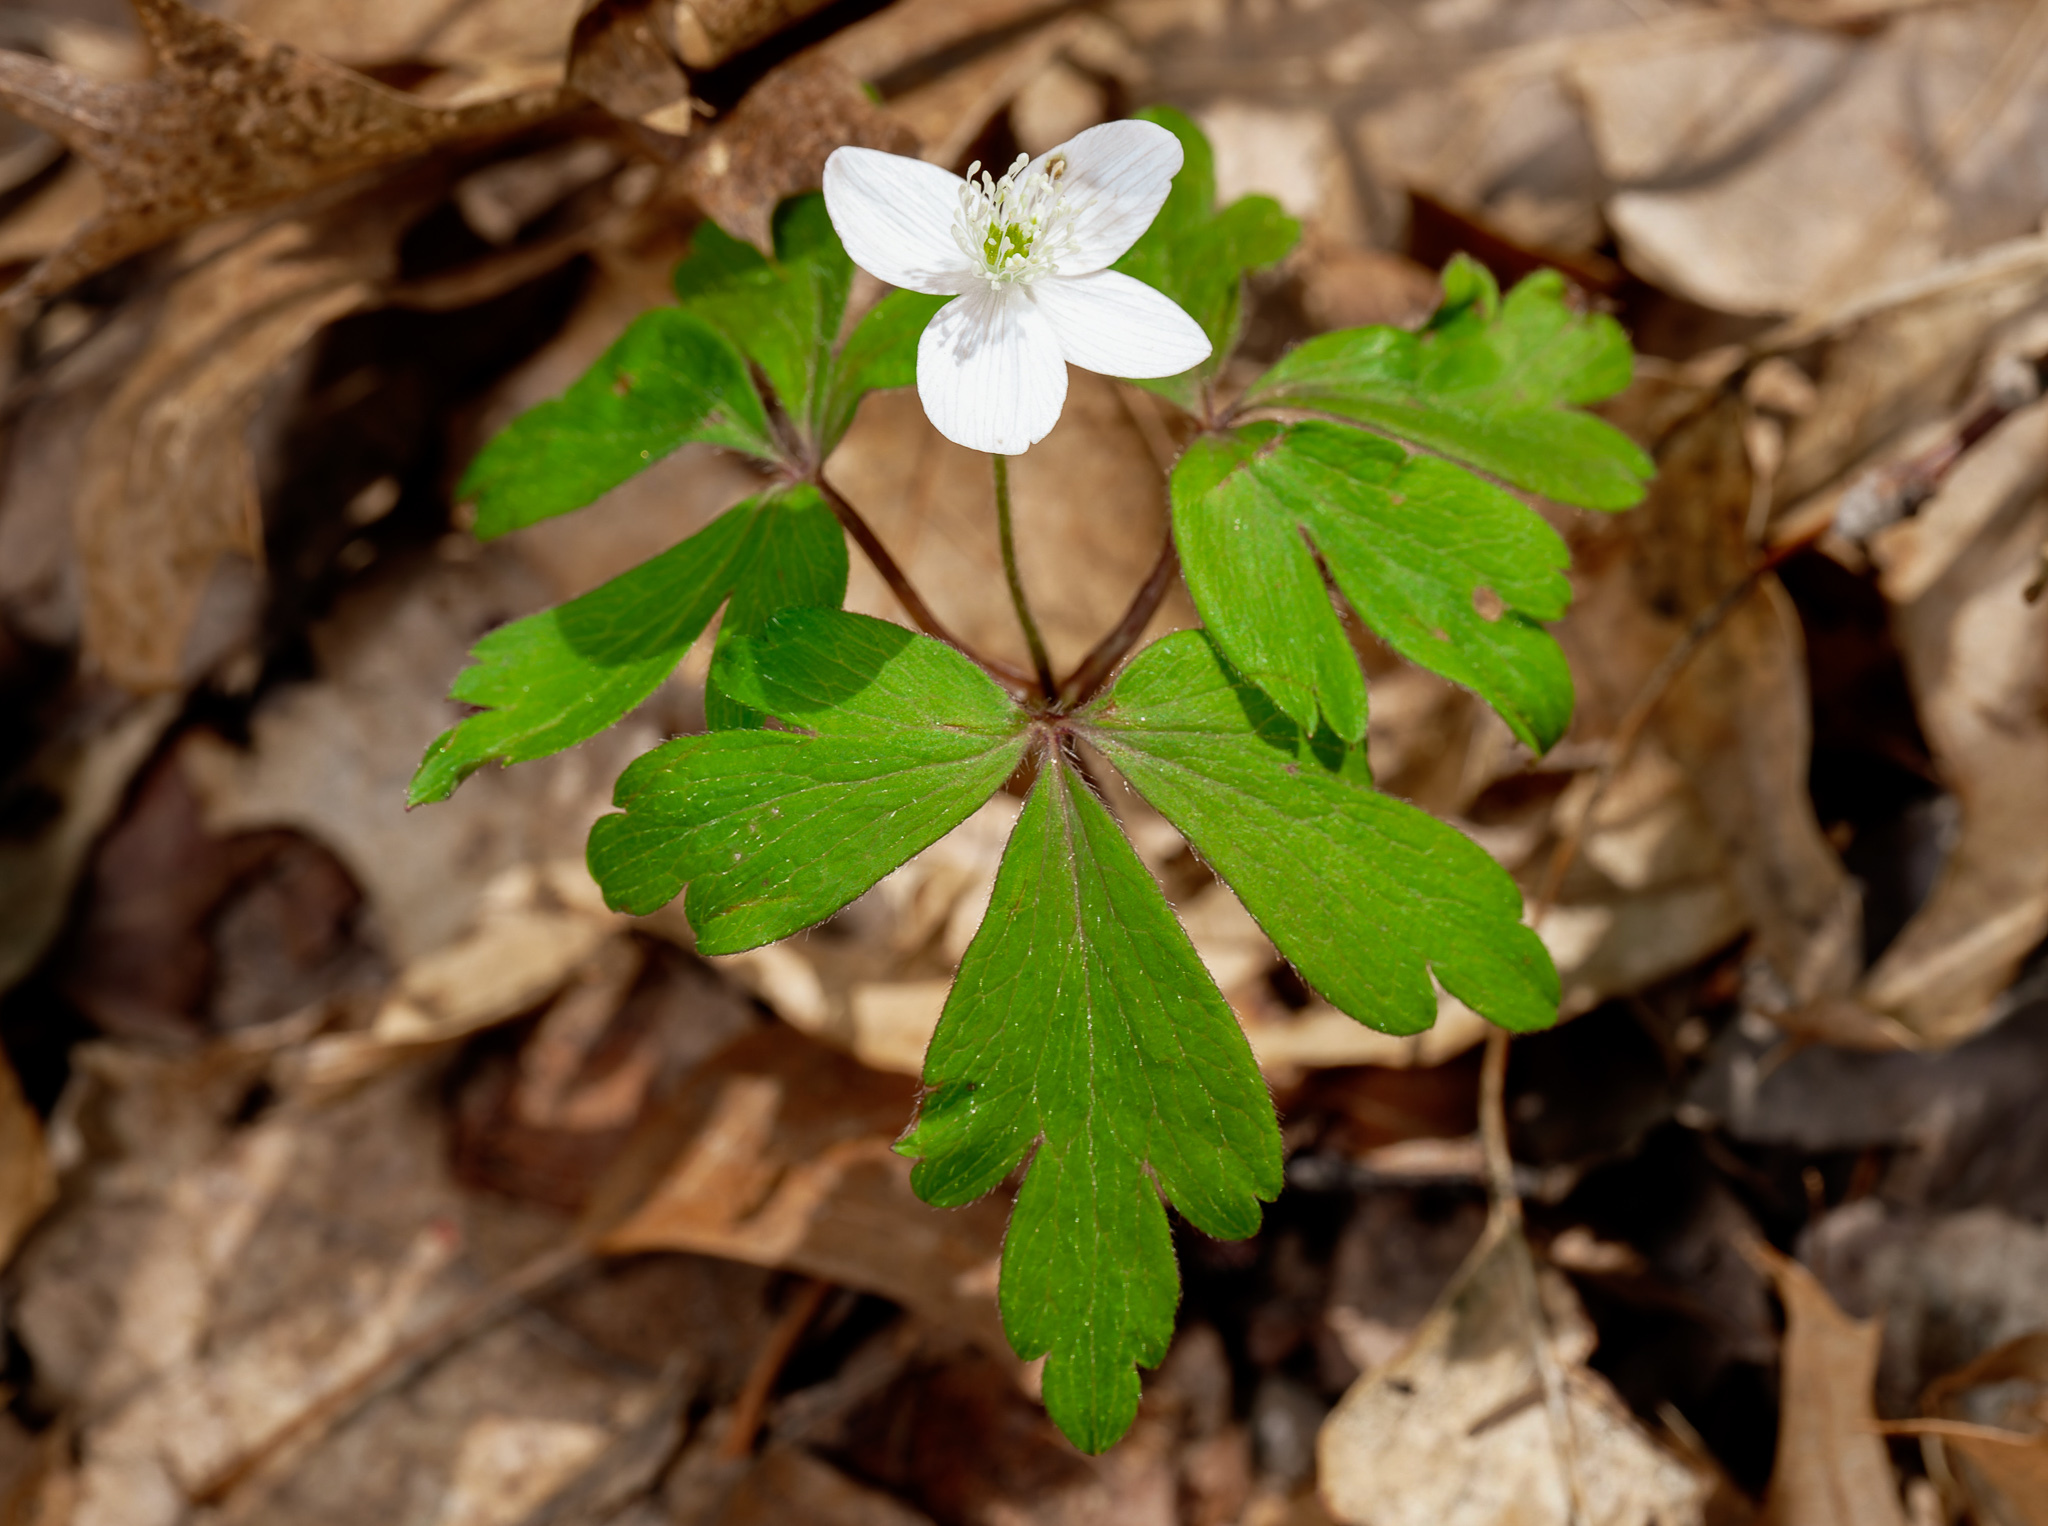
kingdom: Plantae
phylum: Tracheophyta
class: Magnoliopsida
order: Ranunculales
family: Ranunculaceae
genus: Anemone
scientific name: Anemone quinquefolia
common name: Wood anemone
